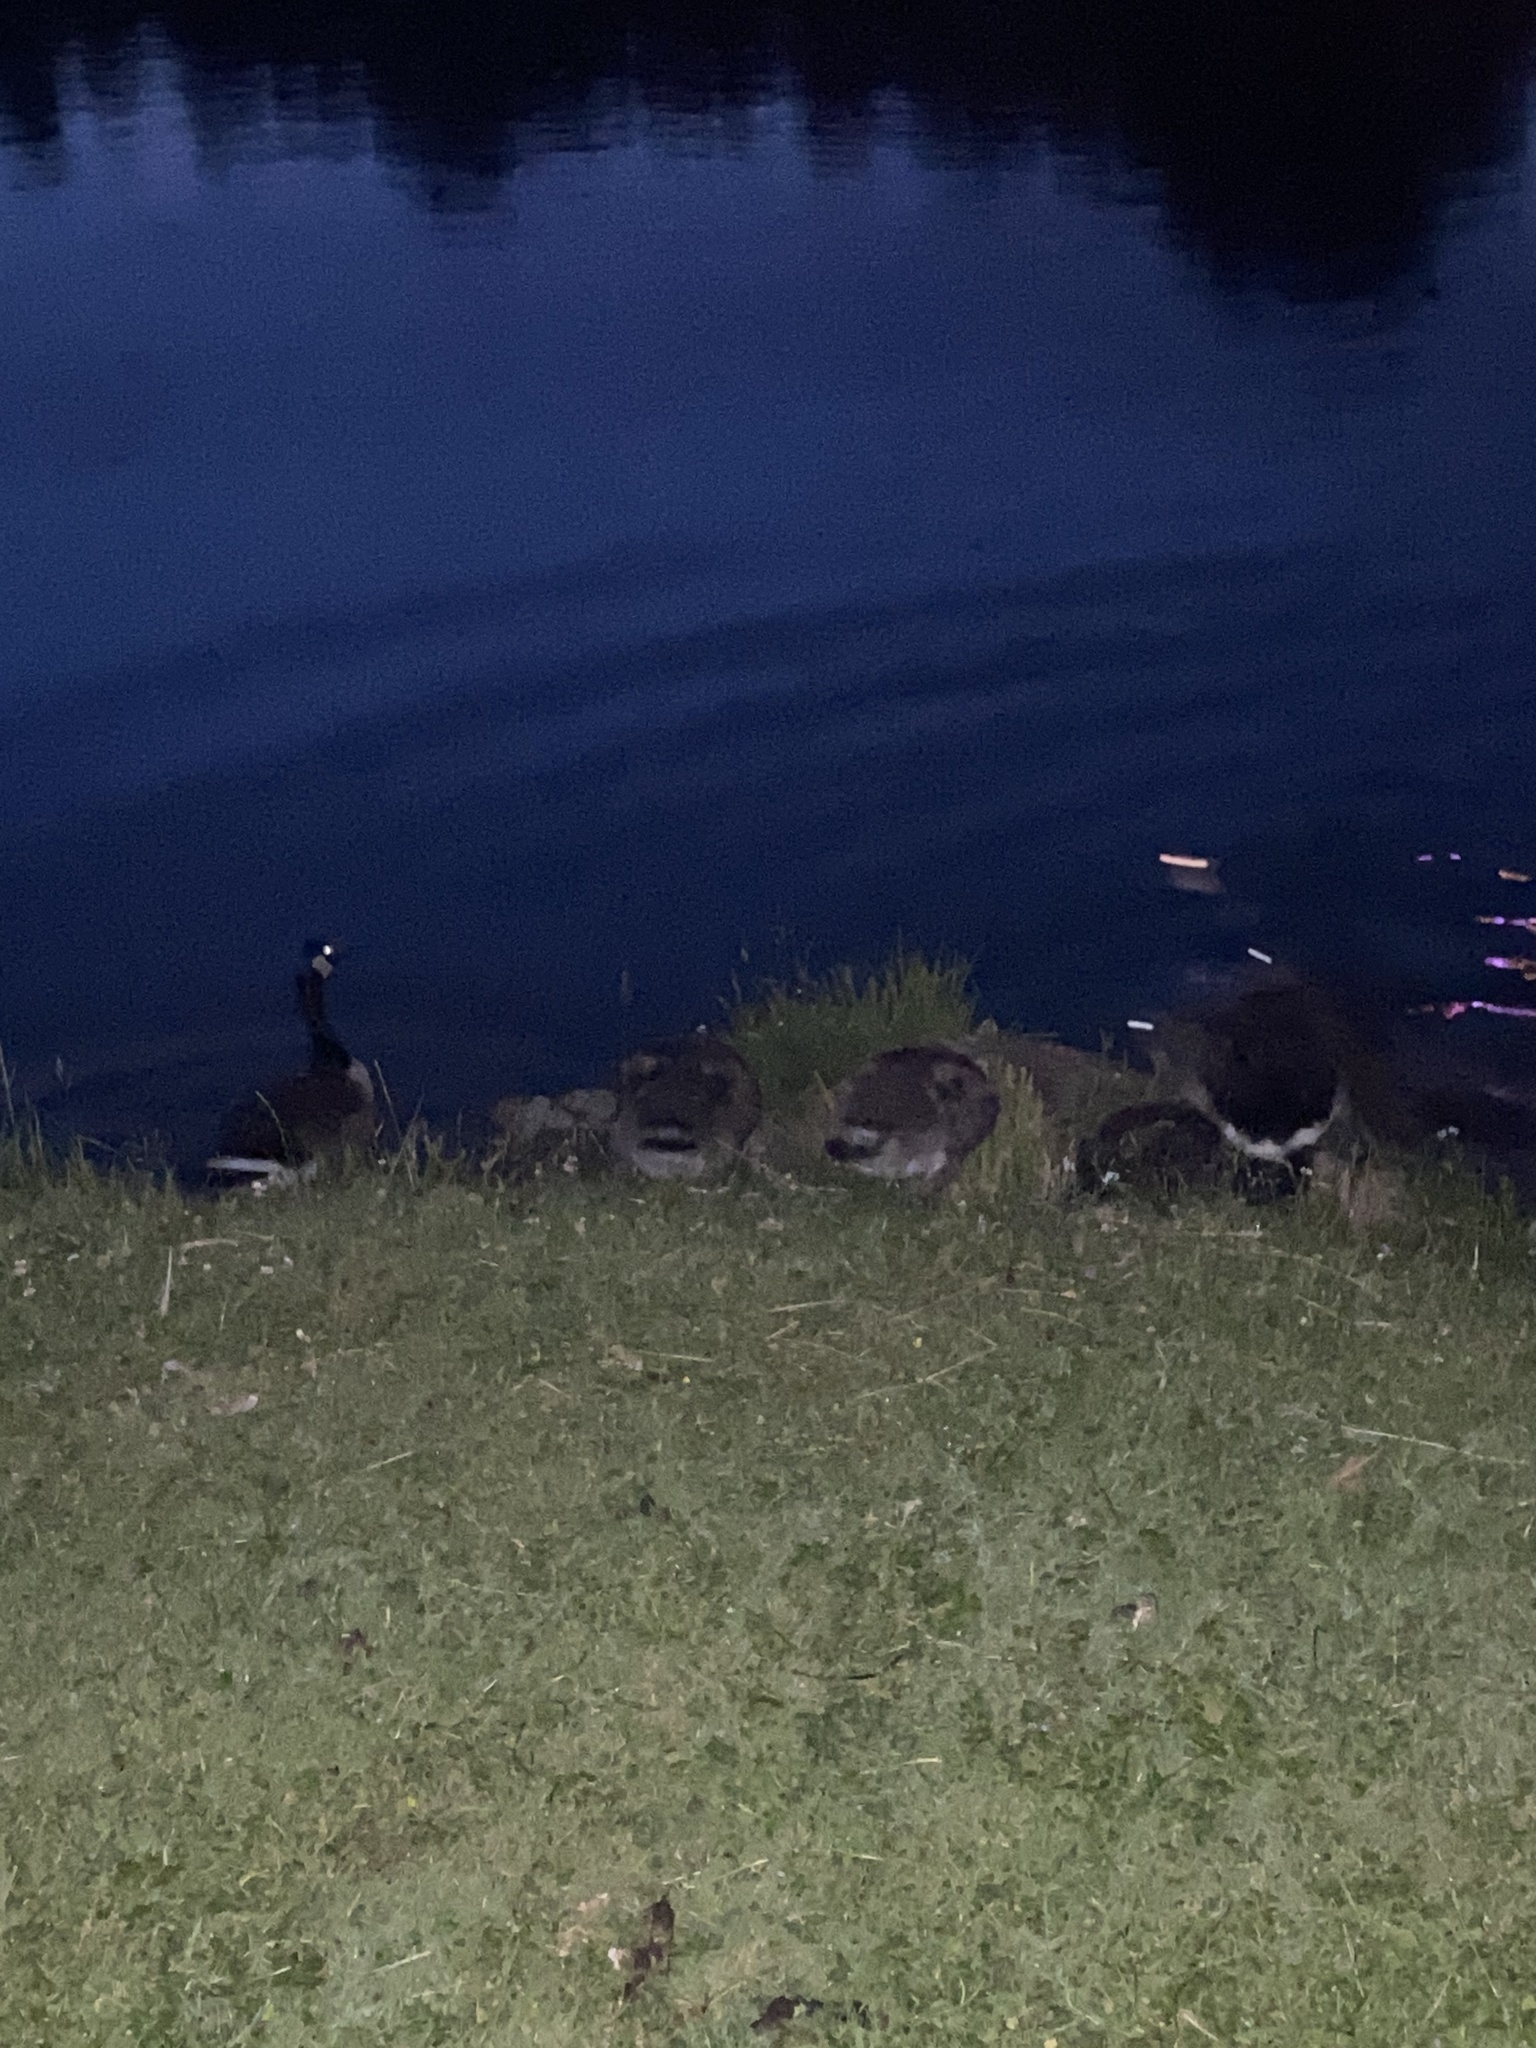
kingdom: Animalia
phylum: Chordata
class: Aves
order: Anseriformes
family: Anatidae
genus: Branta
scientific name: Branta canadensis
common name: Canada goose
